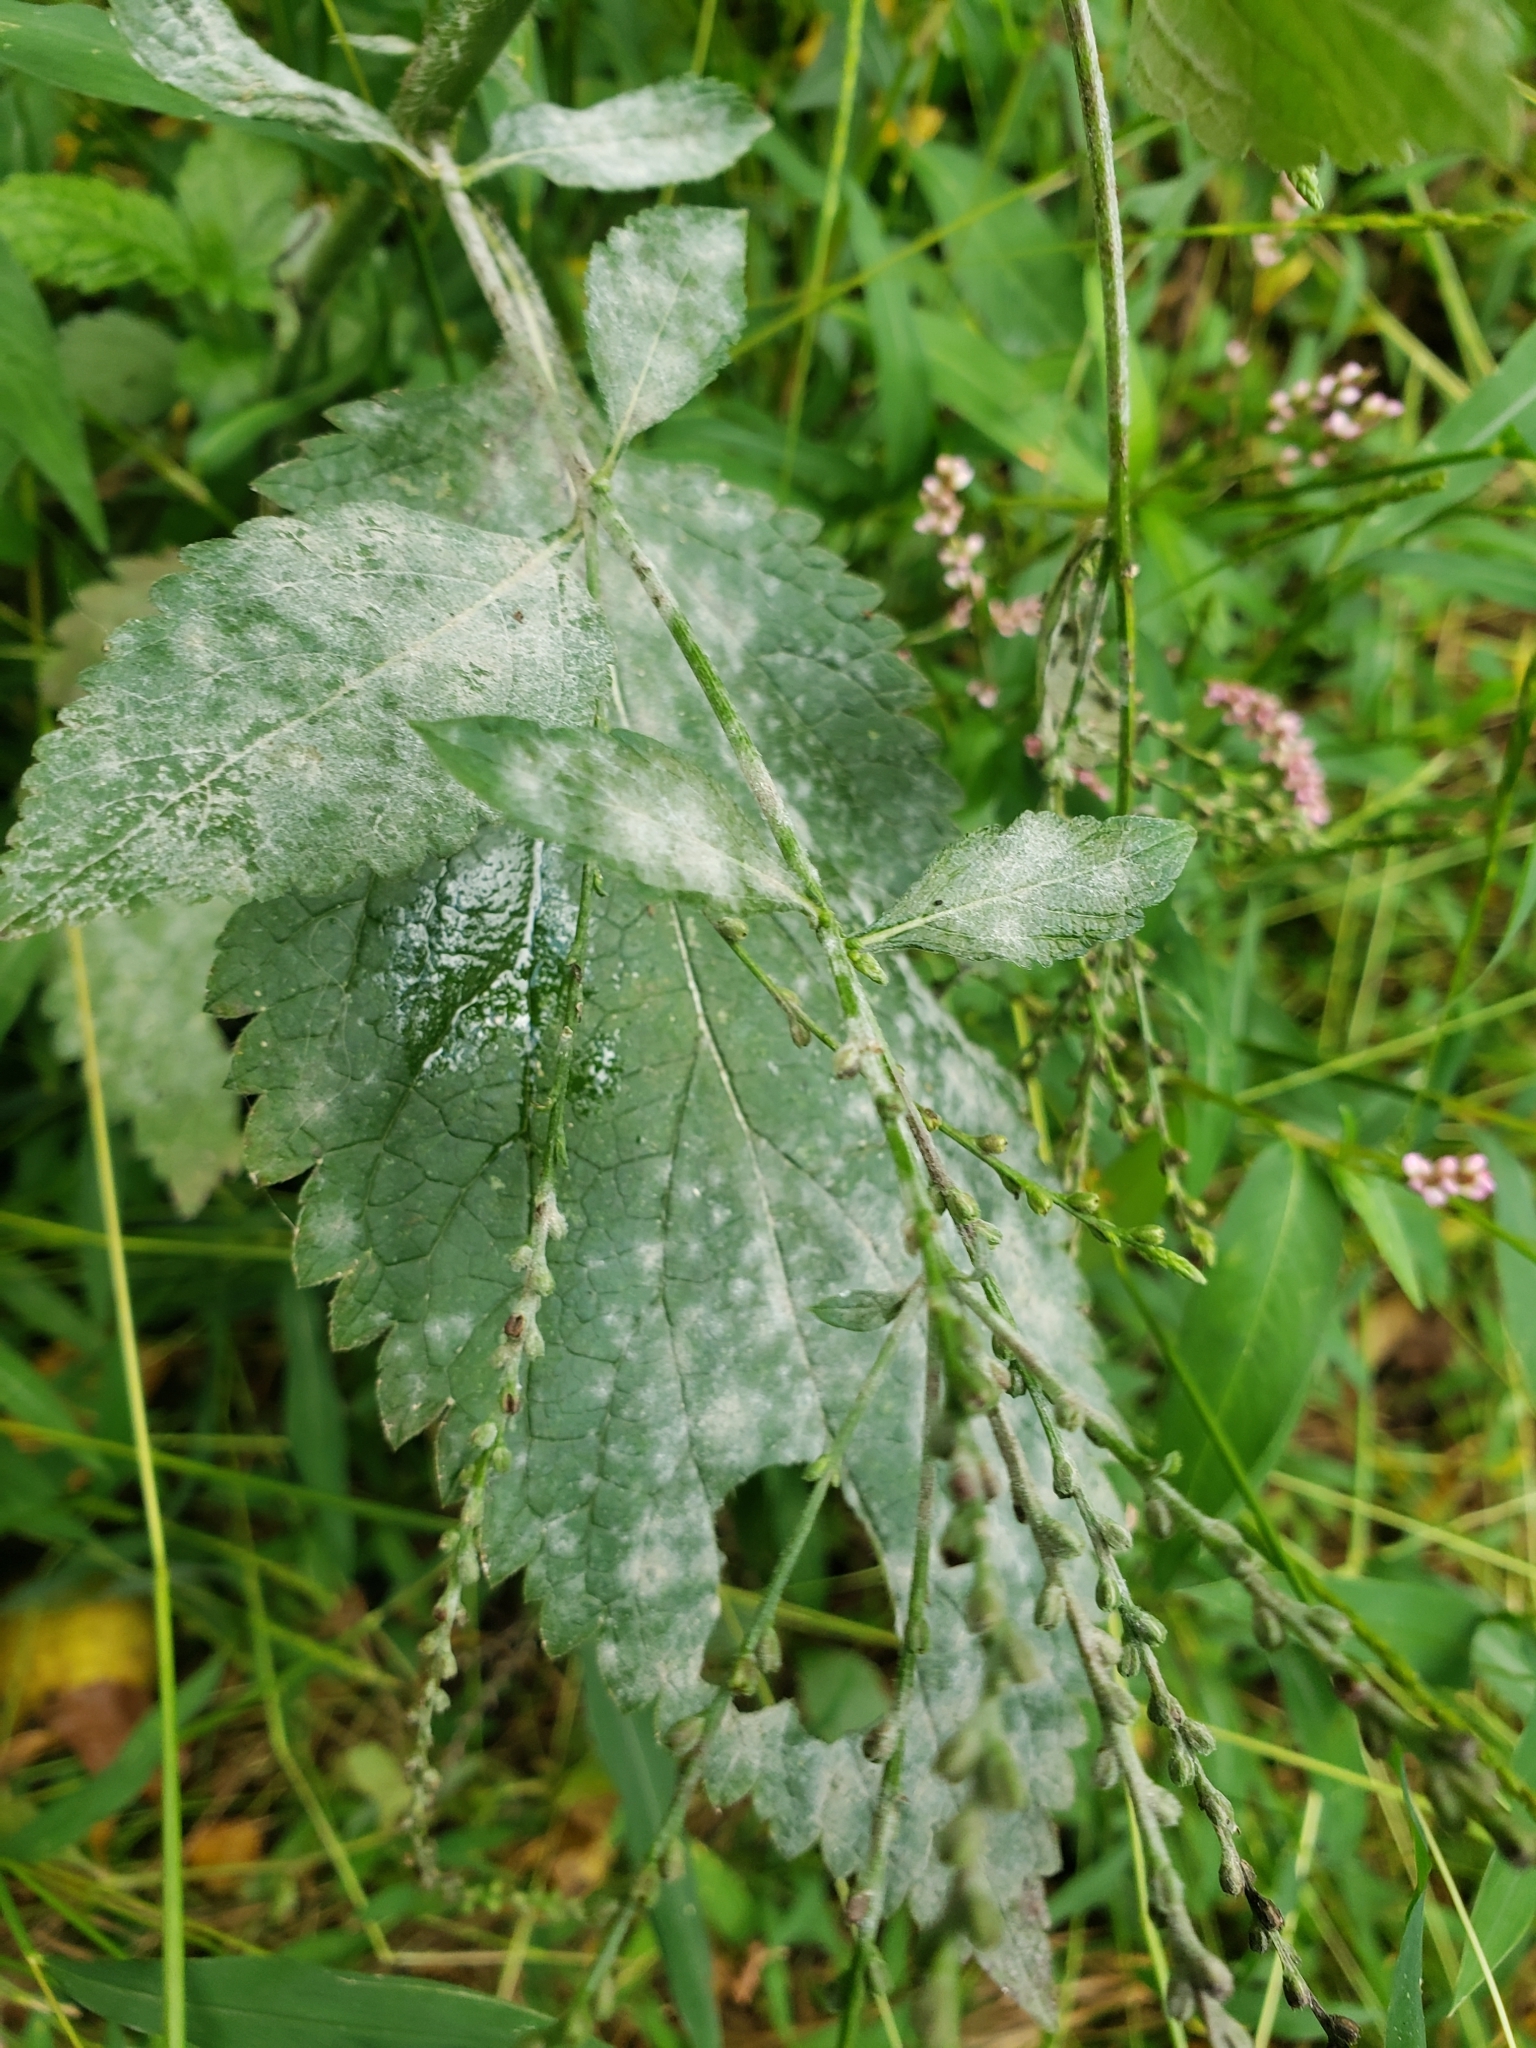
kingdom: Plantae
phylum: Tracheophyta
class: Magnoliopsida
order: Lamiales
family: Verbenaceae
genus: Verbena
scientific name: Verbena urticifolia
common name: Nettle-leaved vervain
